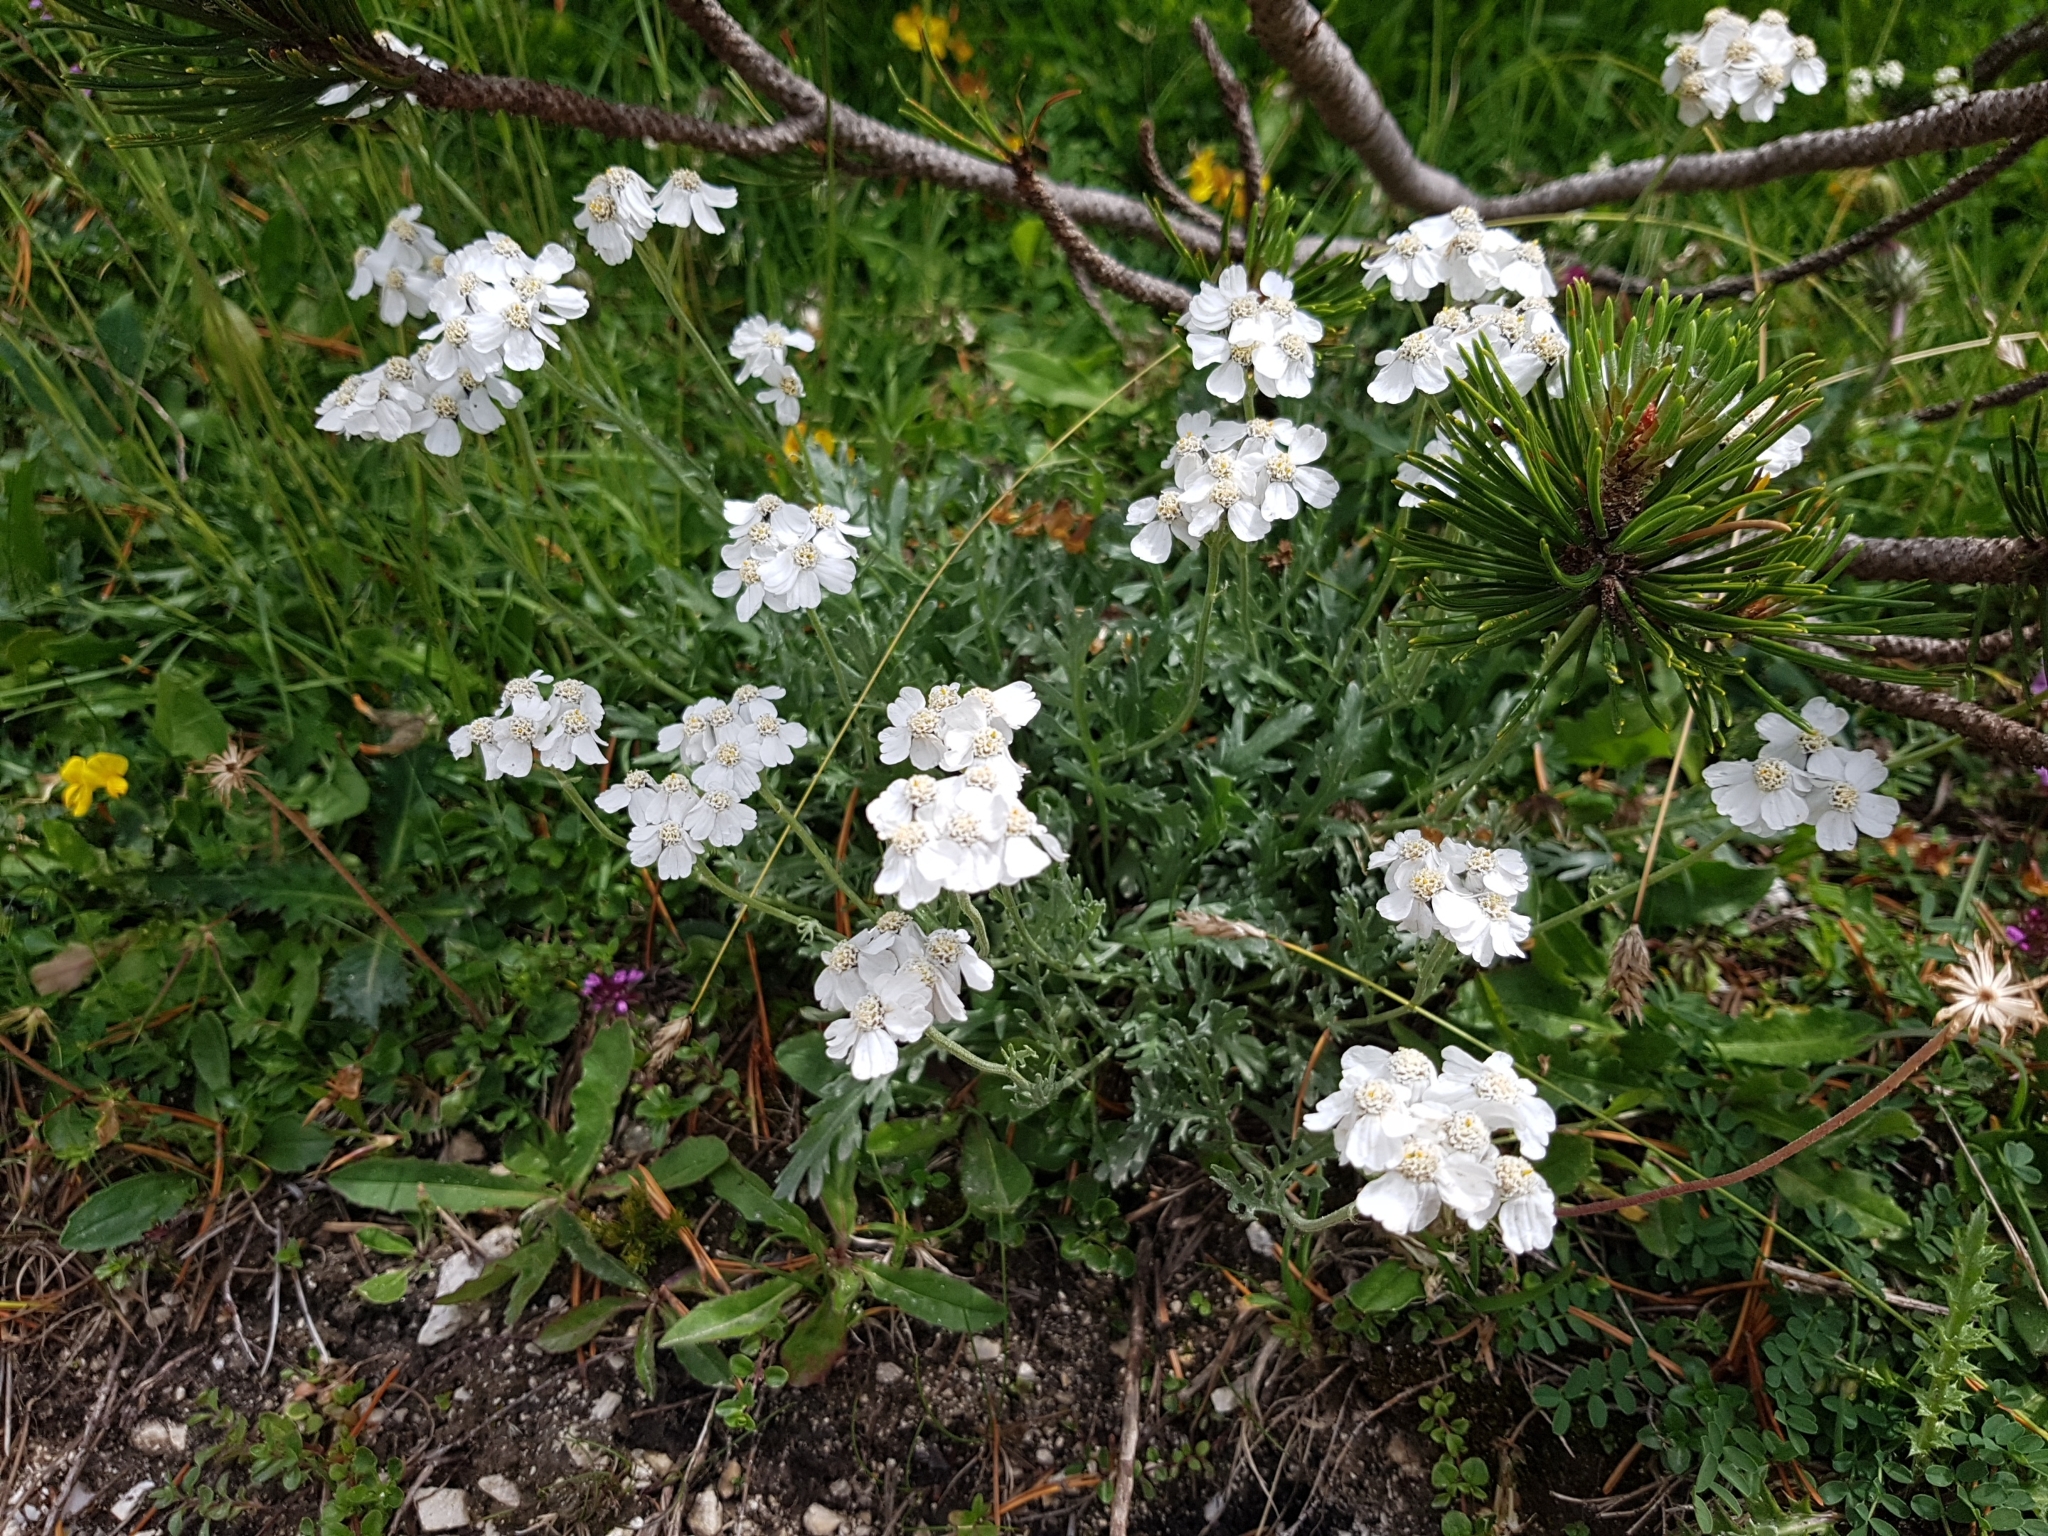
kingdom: Plantae
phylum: Tracheophyta
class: Magnoliopsida
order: Asterales
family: Asteraceae
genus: Achillea
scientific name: Achillea clavennae
